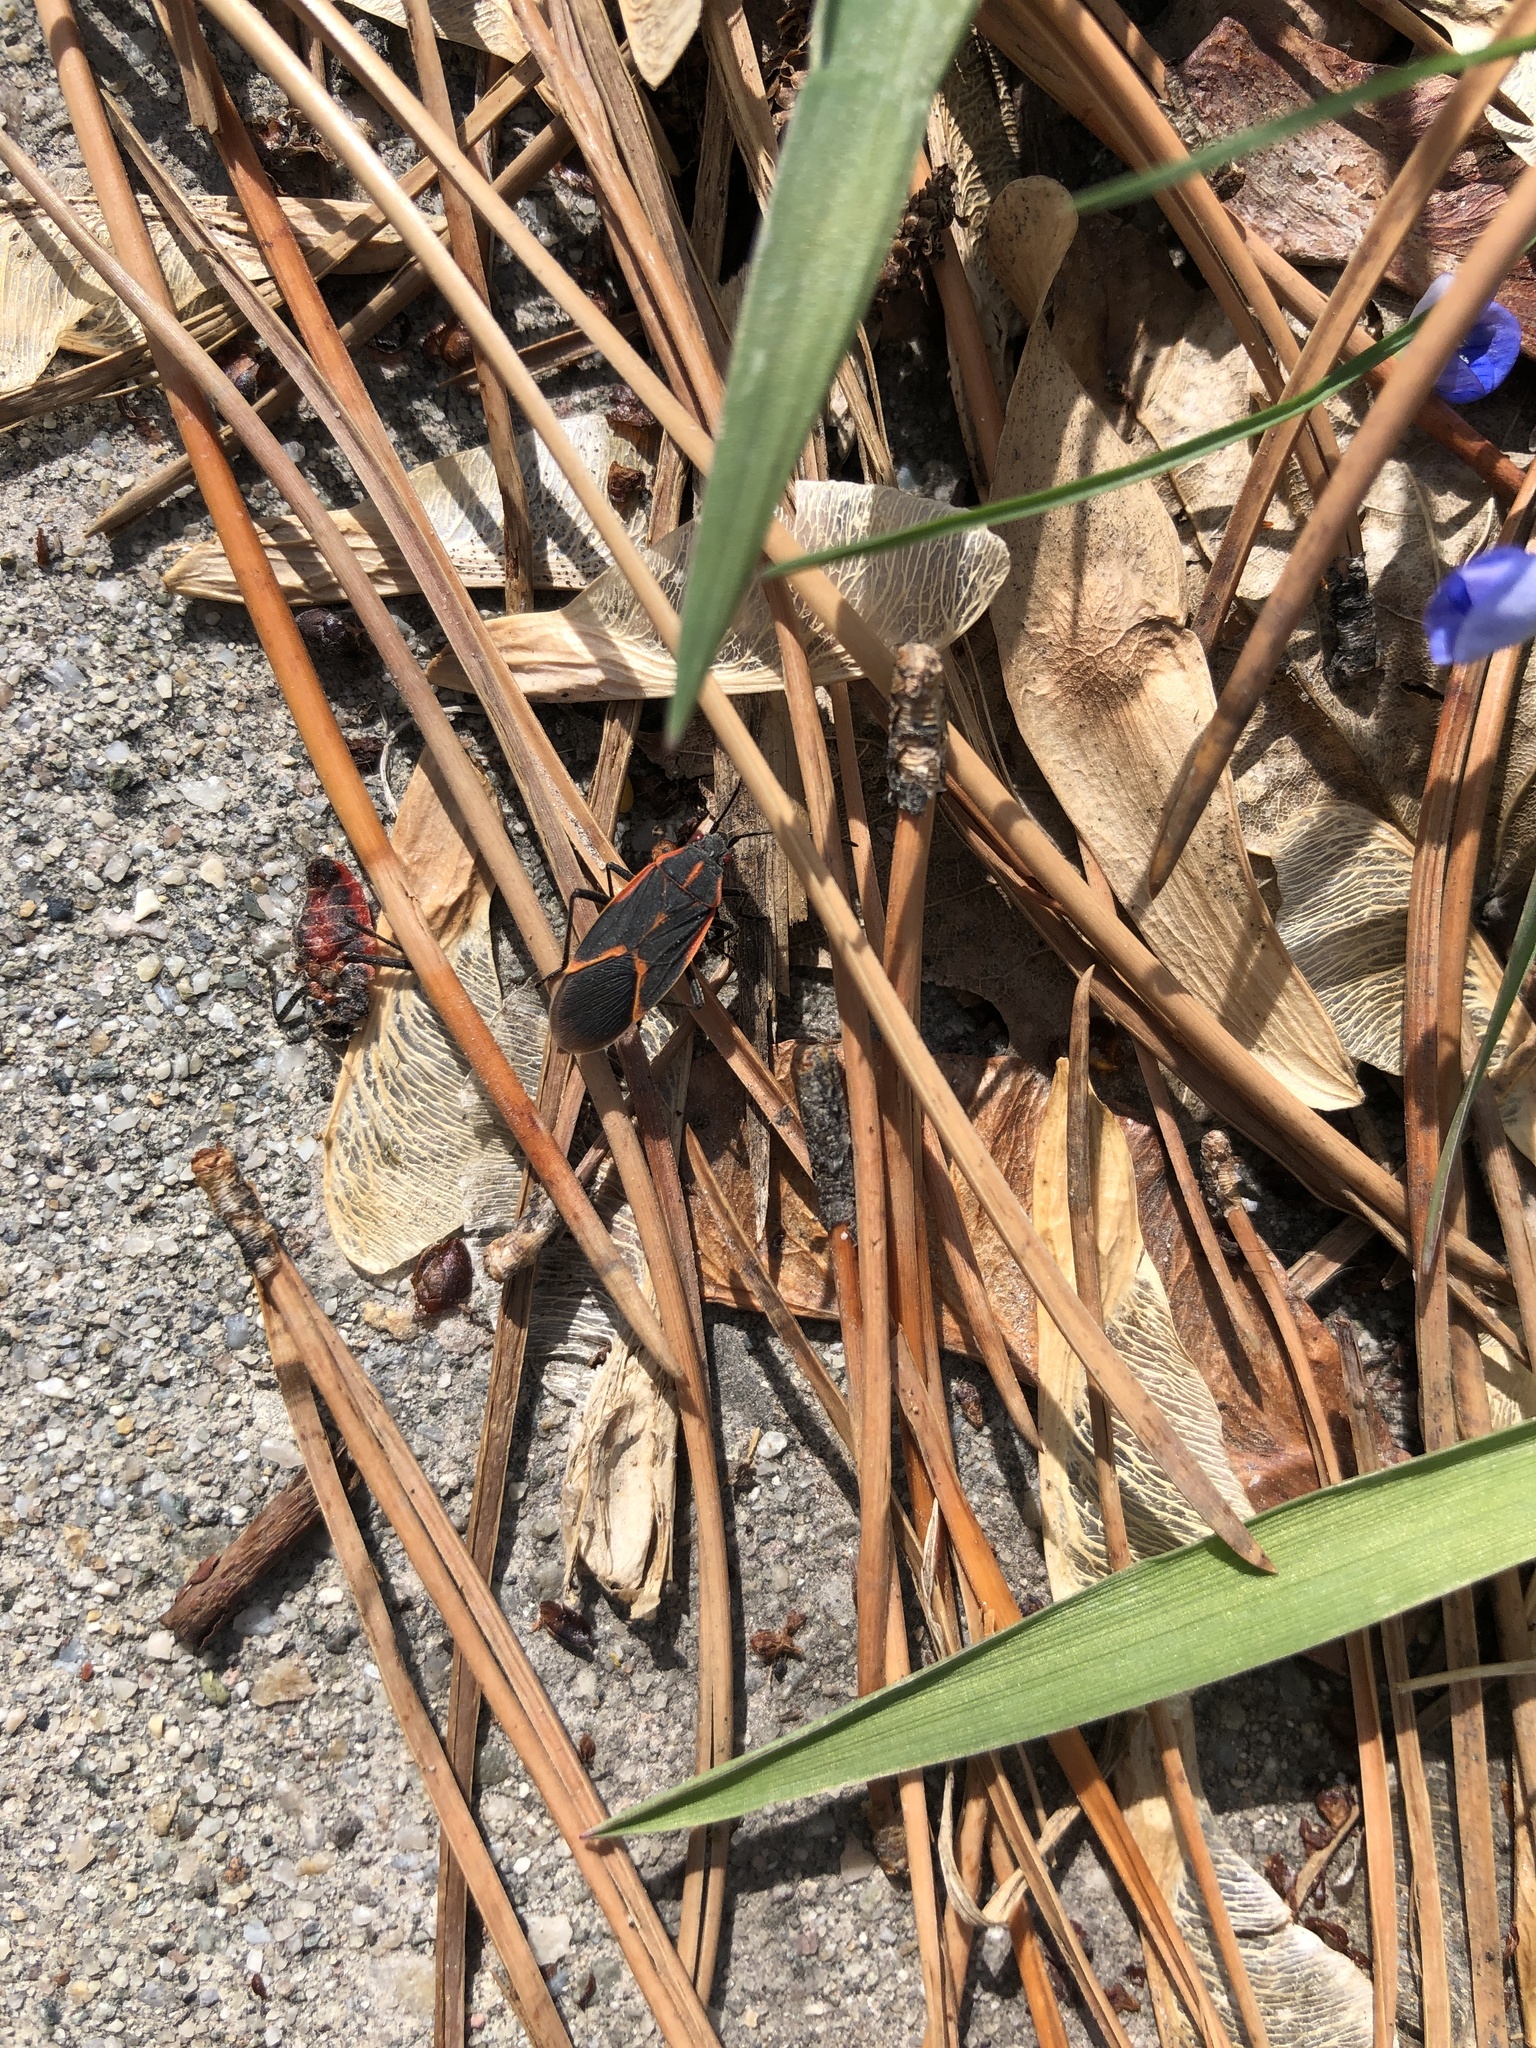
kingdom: Animalia
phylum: Arthropoda
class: Insecta
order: Hemiptera
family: Rhopalidae
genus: Boisea
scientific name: Boisea trivittata
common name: Boxelder bug
